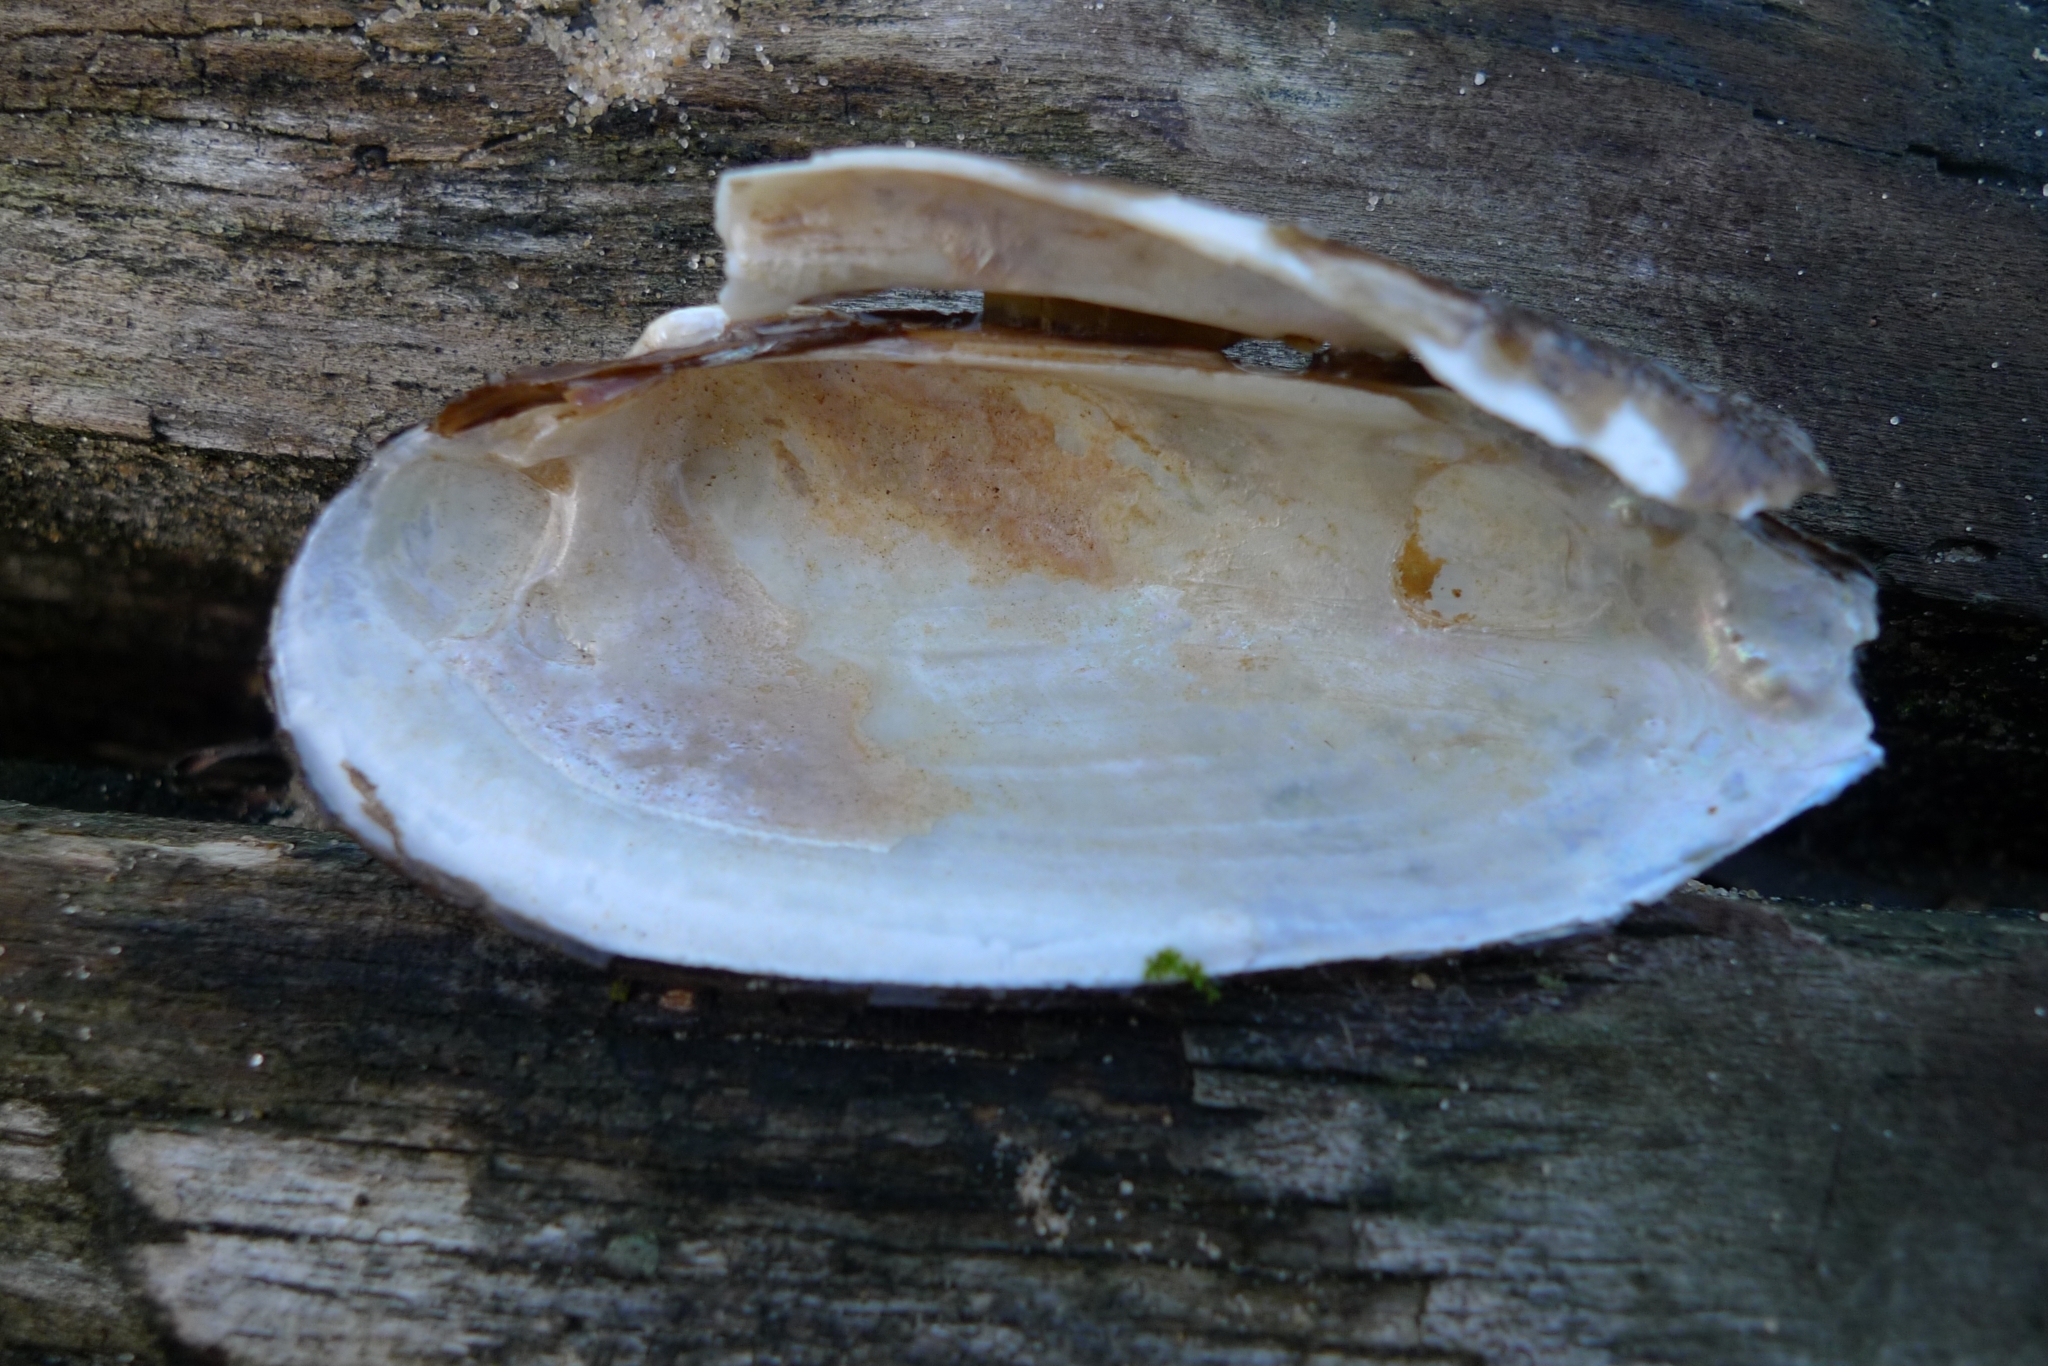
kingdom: Animalia
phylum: Mollusca
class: Bivalvia
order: Unionida
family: Unionidae
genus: Unio
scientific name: Unio pictorum
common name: Painter's mussel
